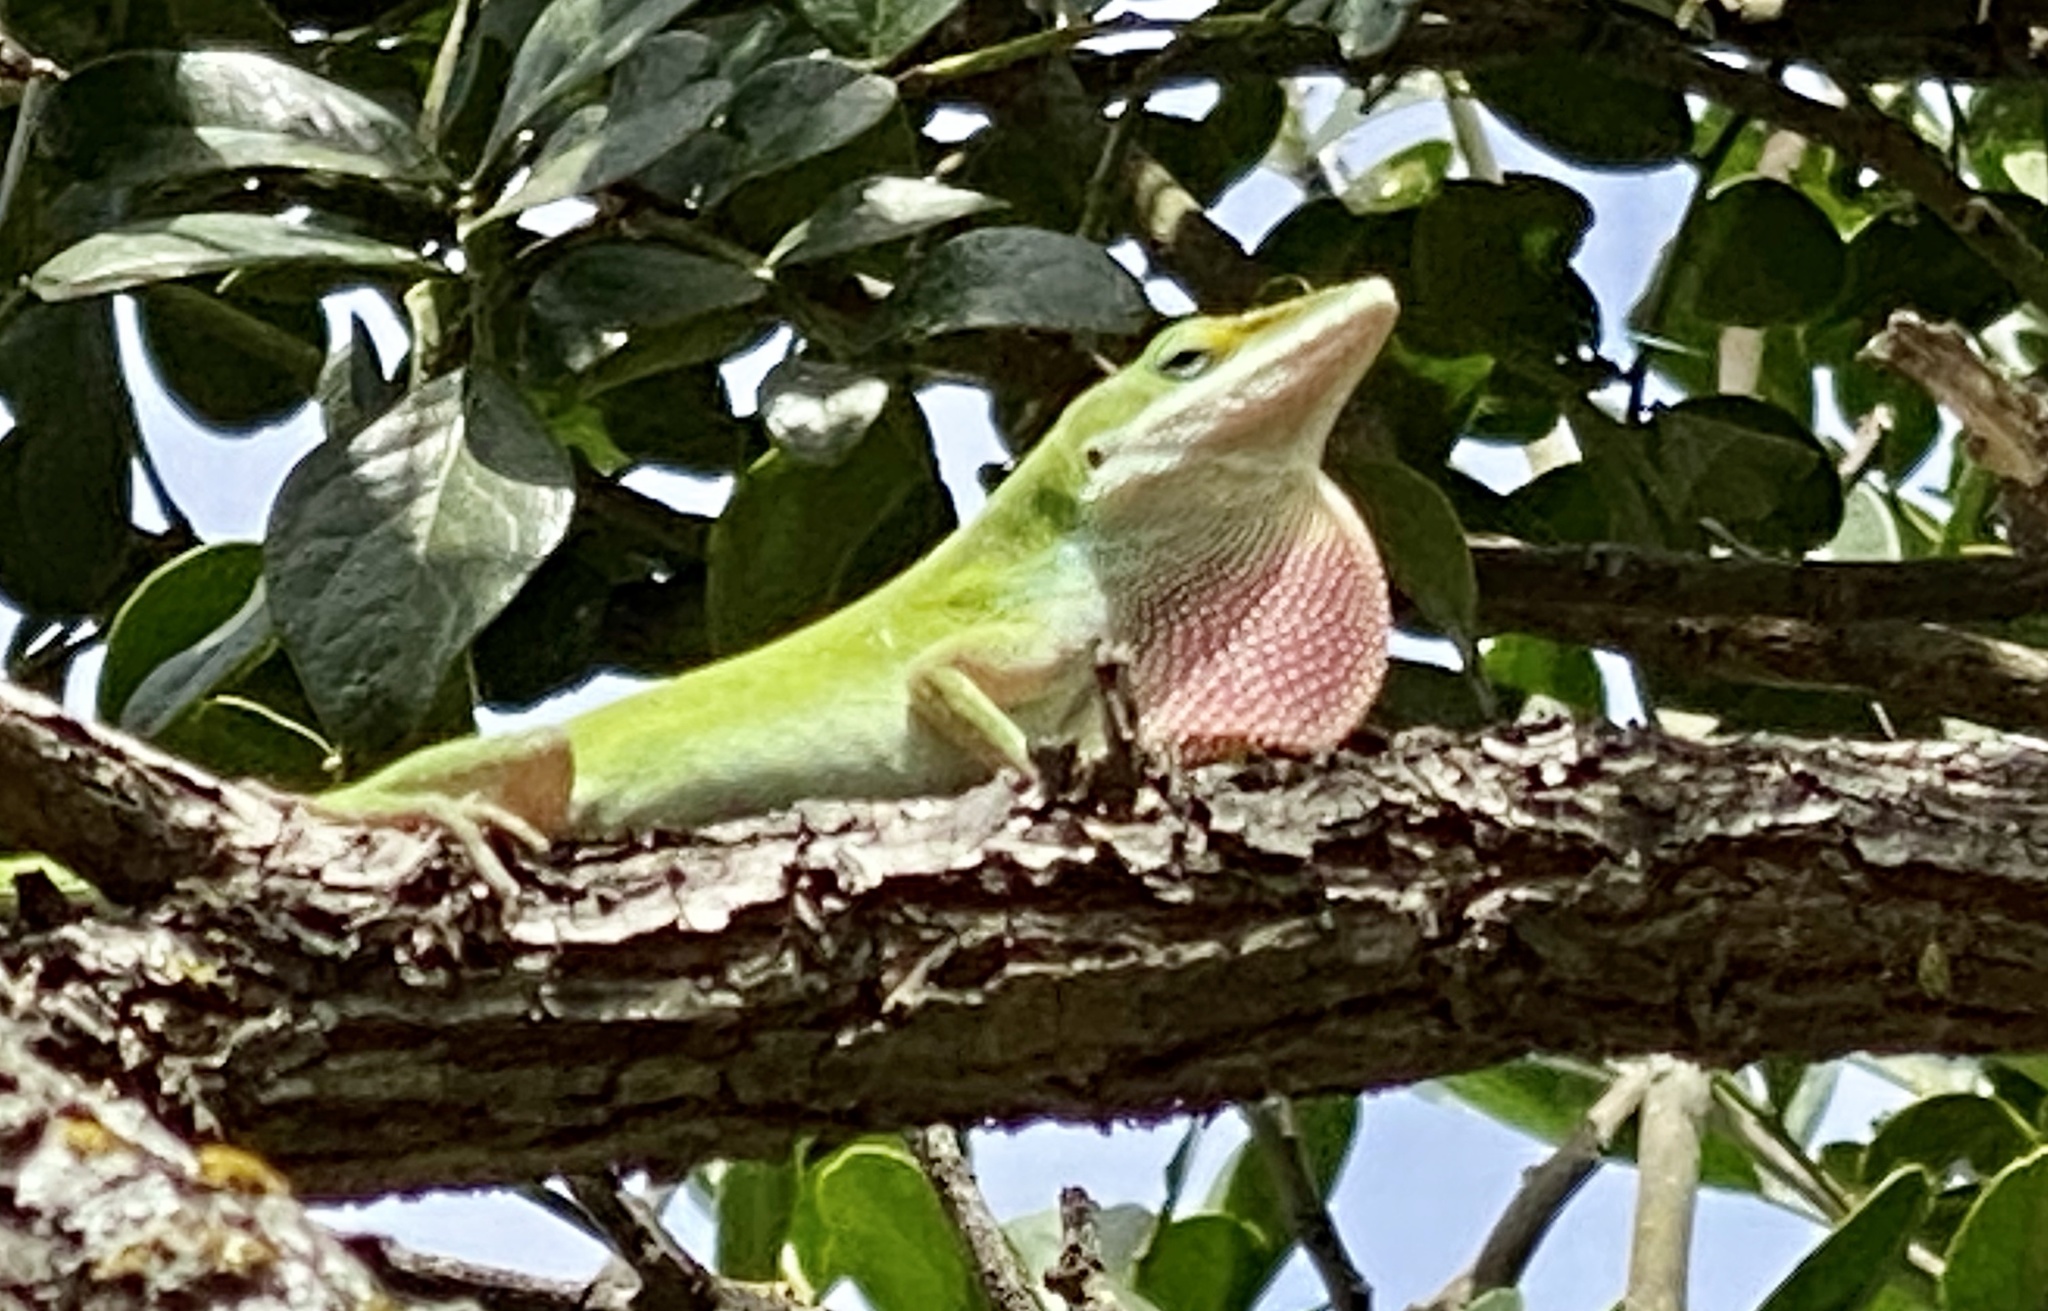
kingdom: Animalia
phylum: Chordata
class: Squamata
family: Dactyloidae
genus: Anolis
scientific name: Anolis carolinensis
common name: Green anole
